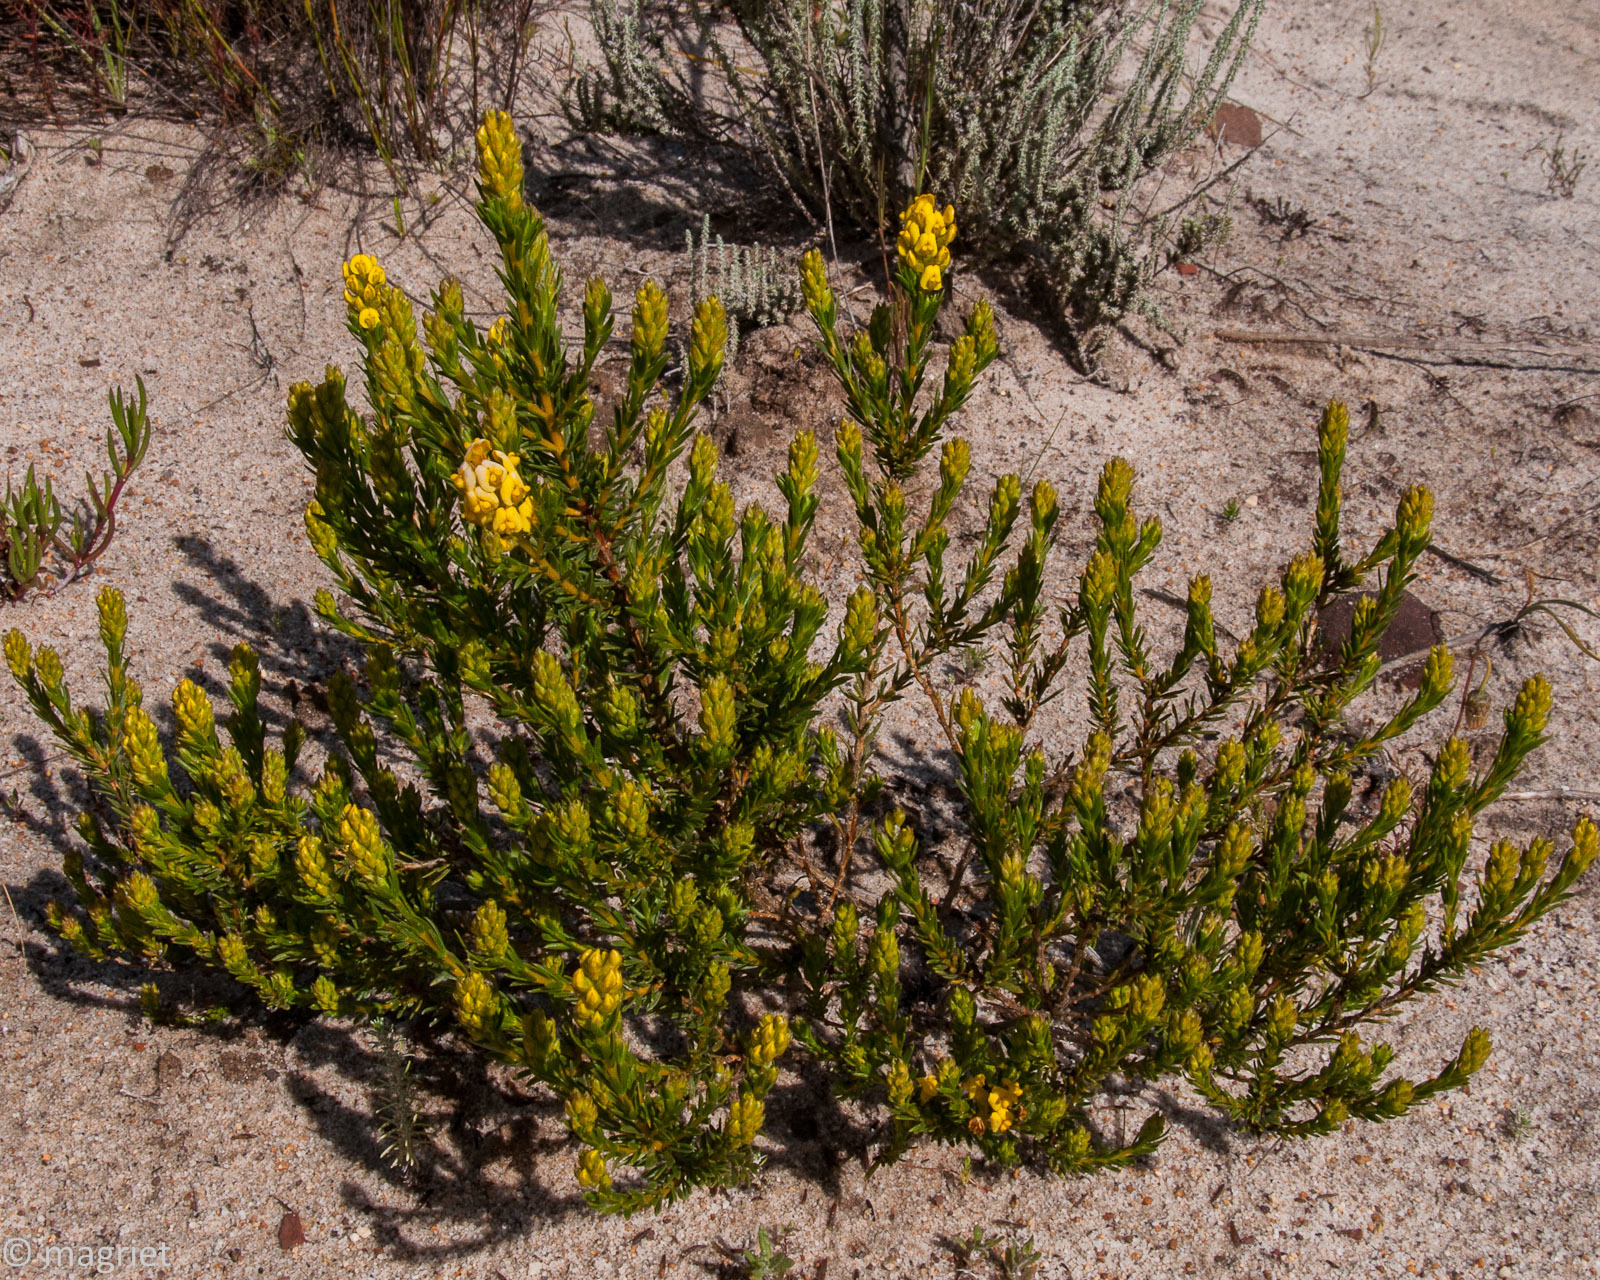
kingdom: Plantae
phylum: Tracheophyta
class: Magnoliopsida
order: Fabales
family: Fabaceae
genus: Aspalathus
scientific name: Aspalathus callosa
